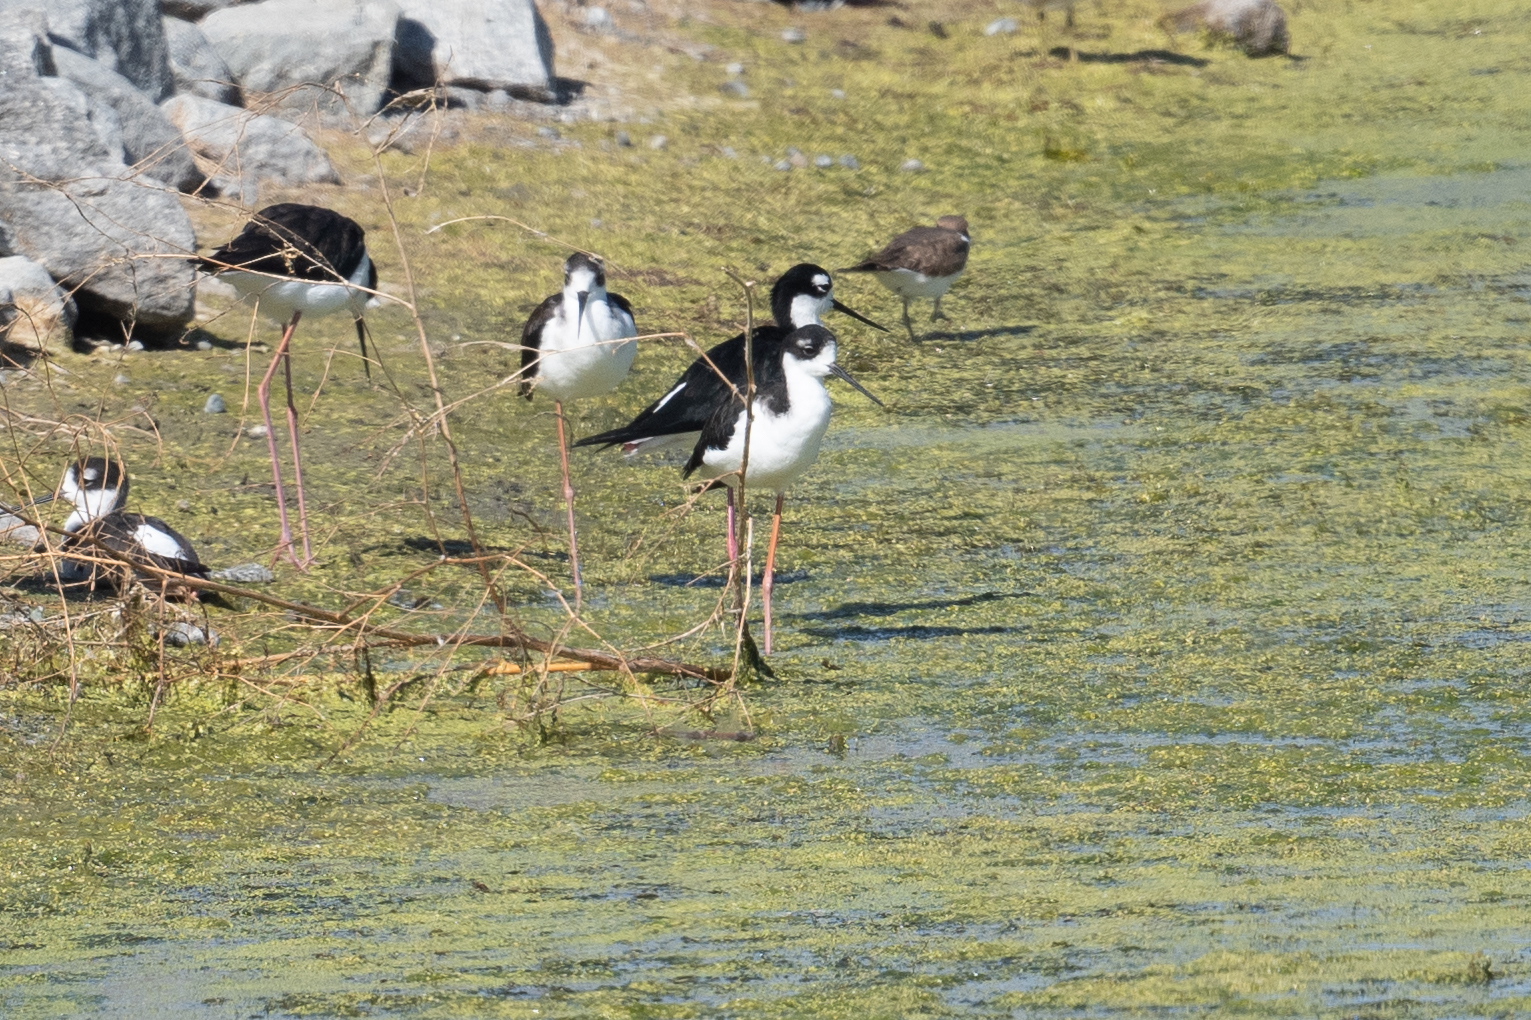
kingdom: Animalia
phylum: Chordata
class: Aves
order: Charadriiformes
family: Recurvirostridae
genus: Himantopus
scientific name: Himantopus mexicanus
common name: Black-necked stilt
